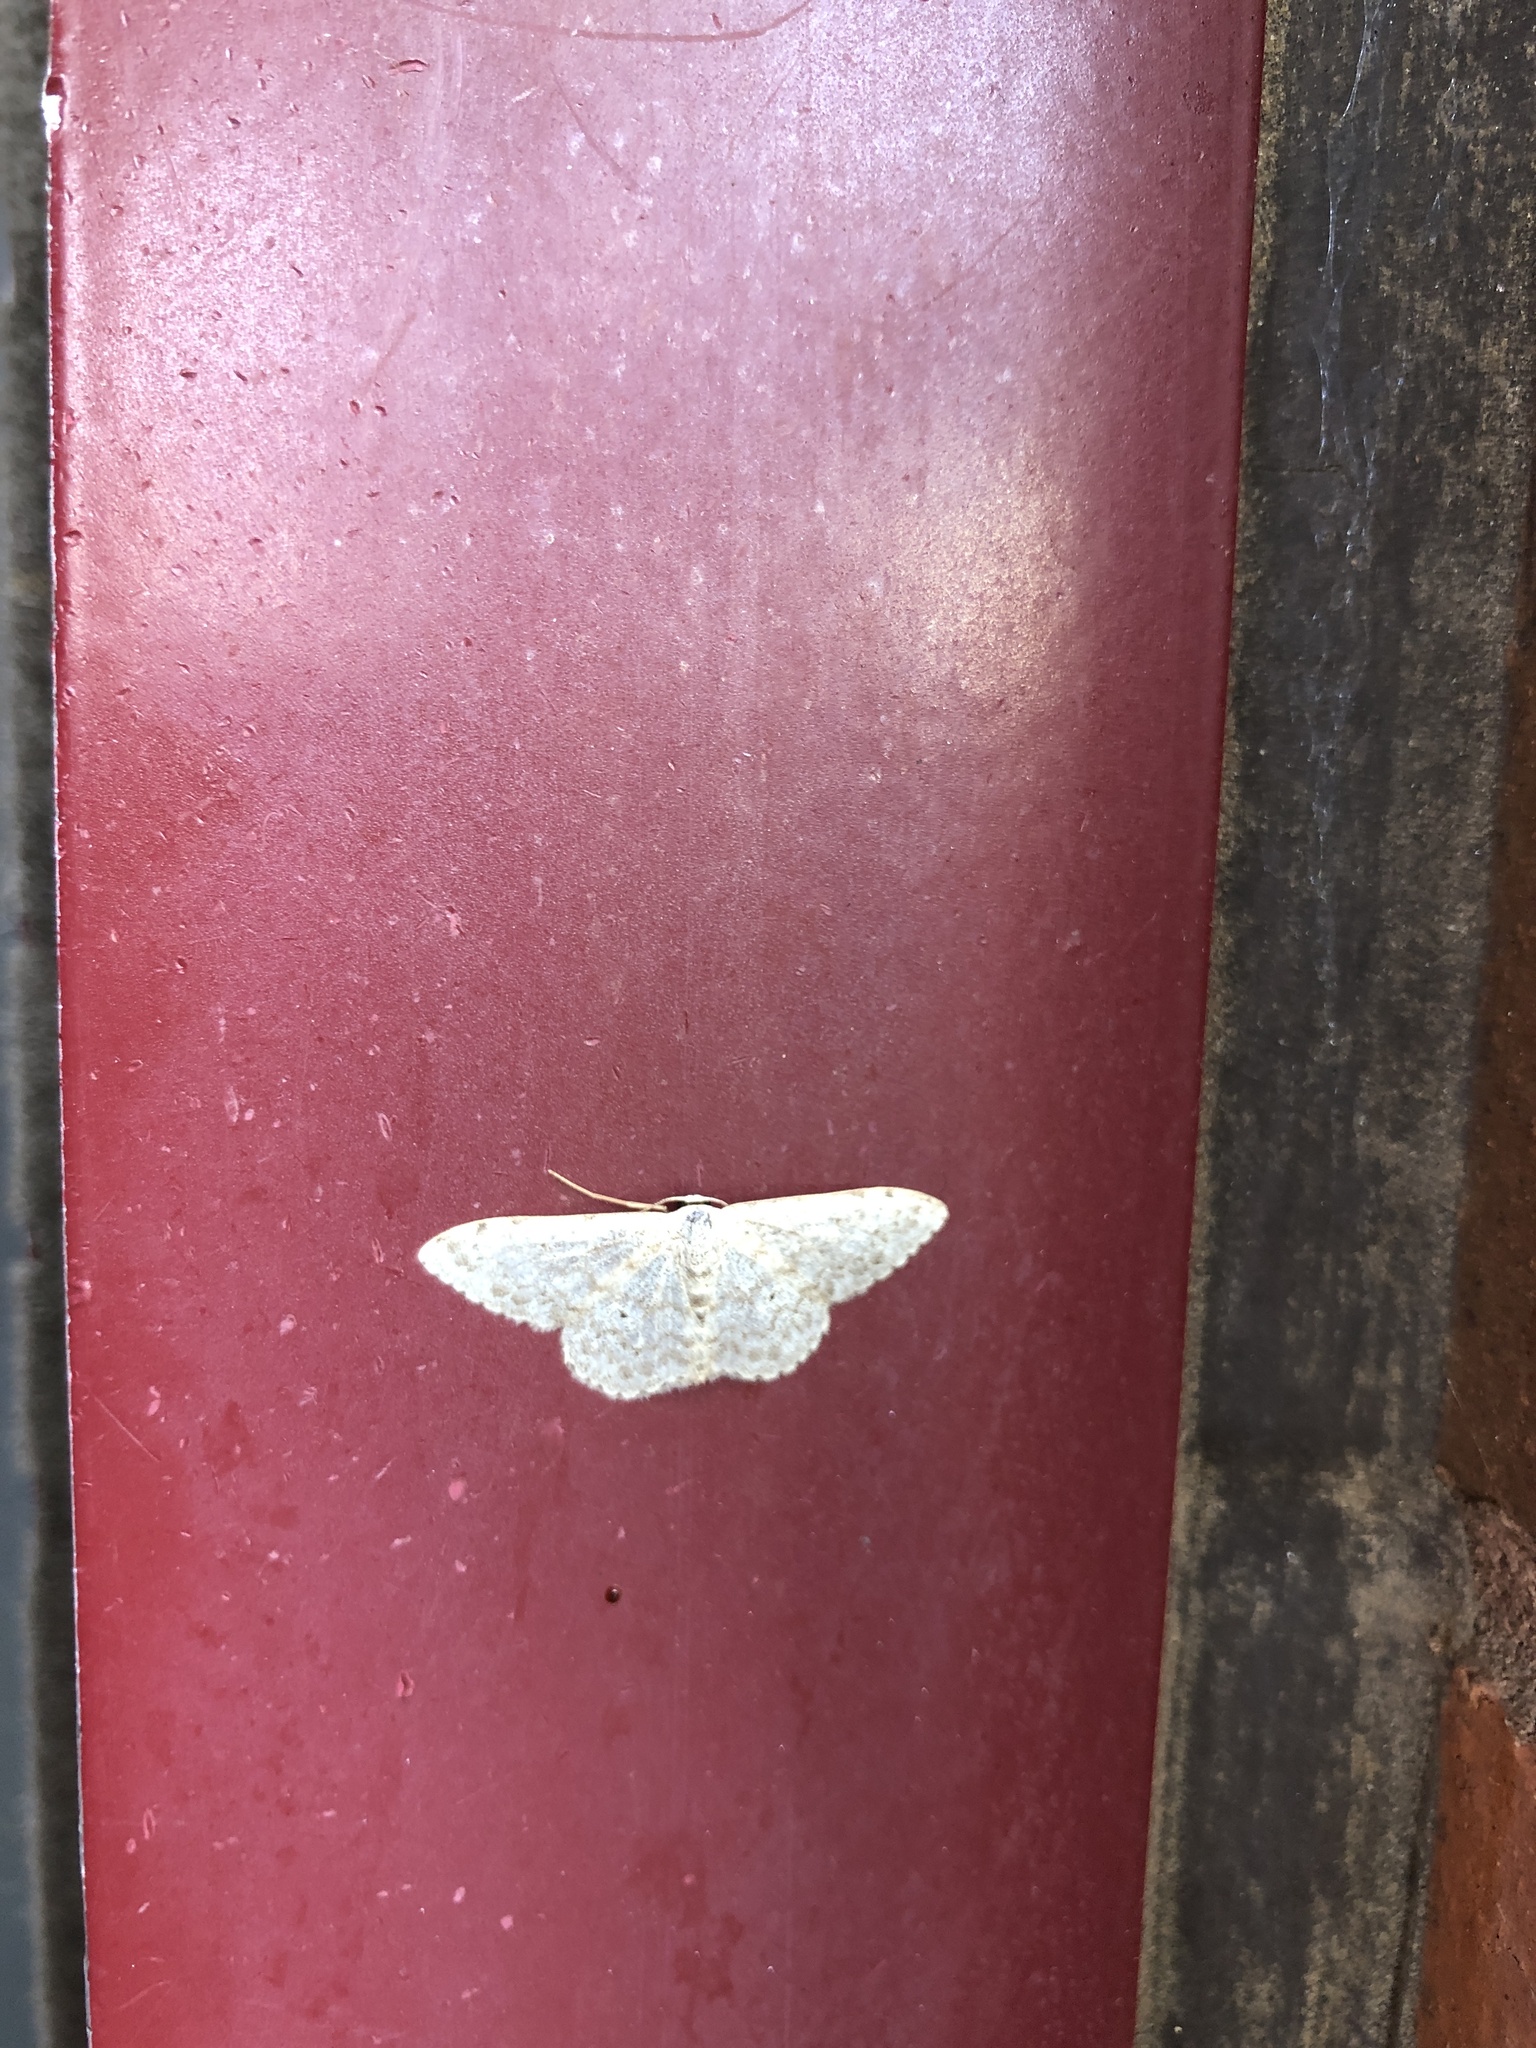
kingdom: Animalia
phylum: Arthropoda
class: Insecta
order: Lepidoptera
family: Geometridae
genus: Scopula
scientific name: Scopula marginepunctata
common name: Mullein wave
